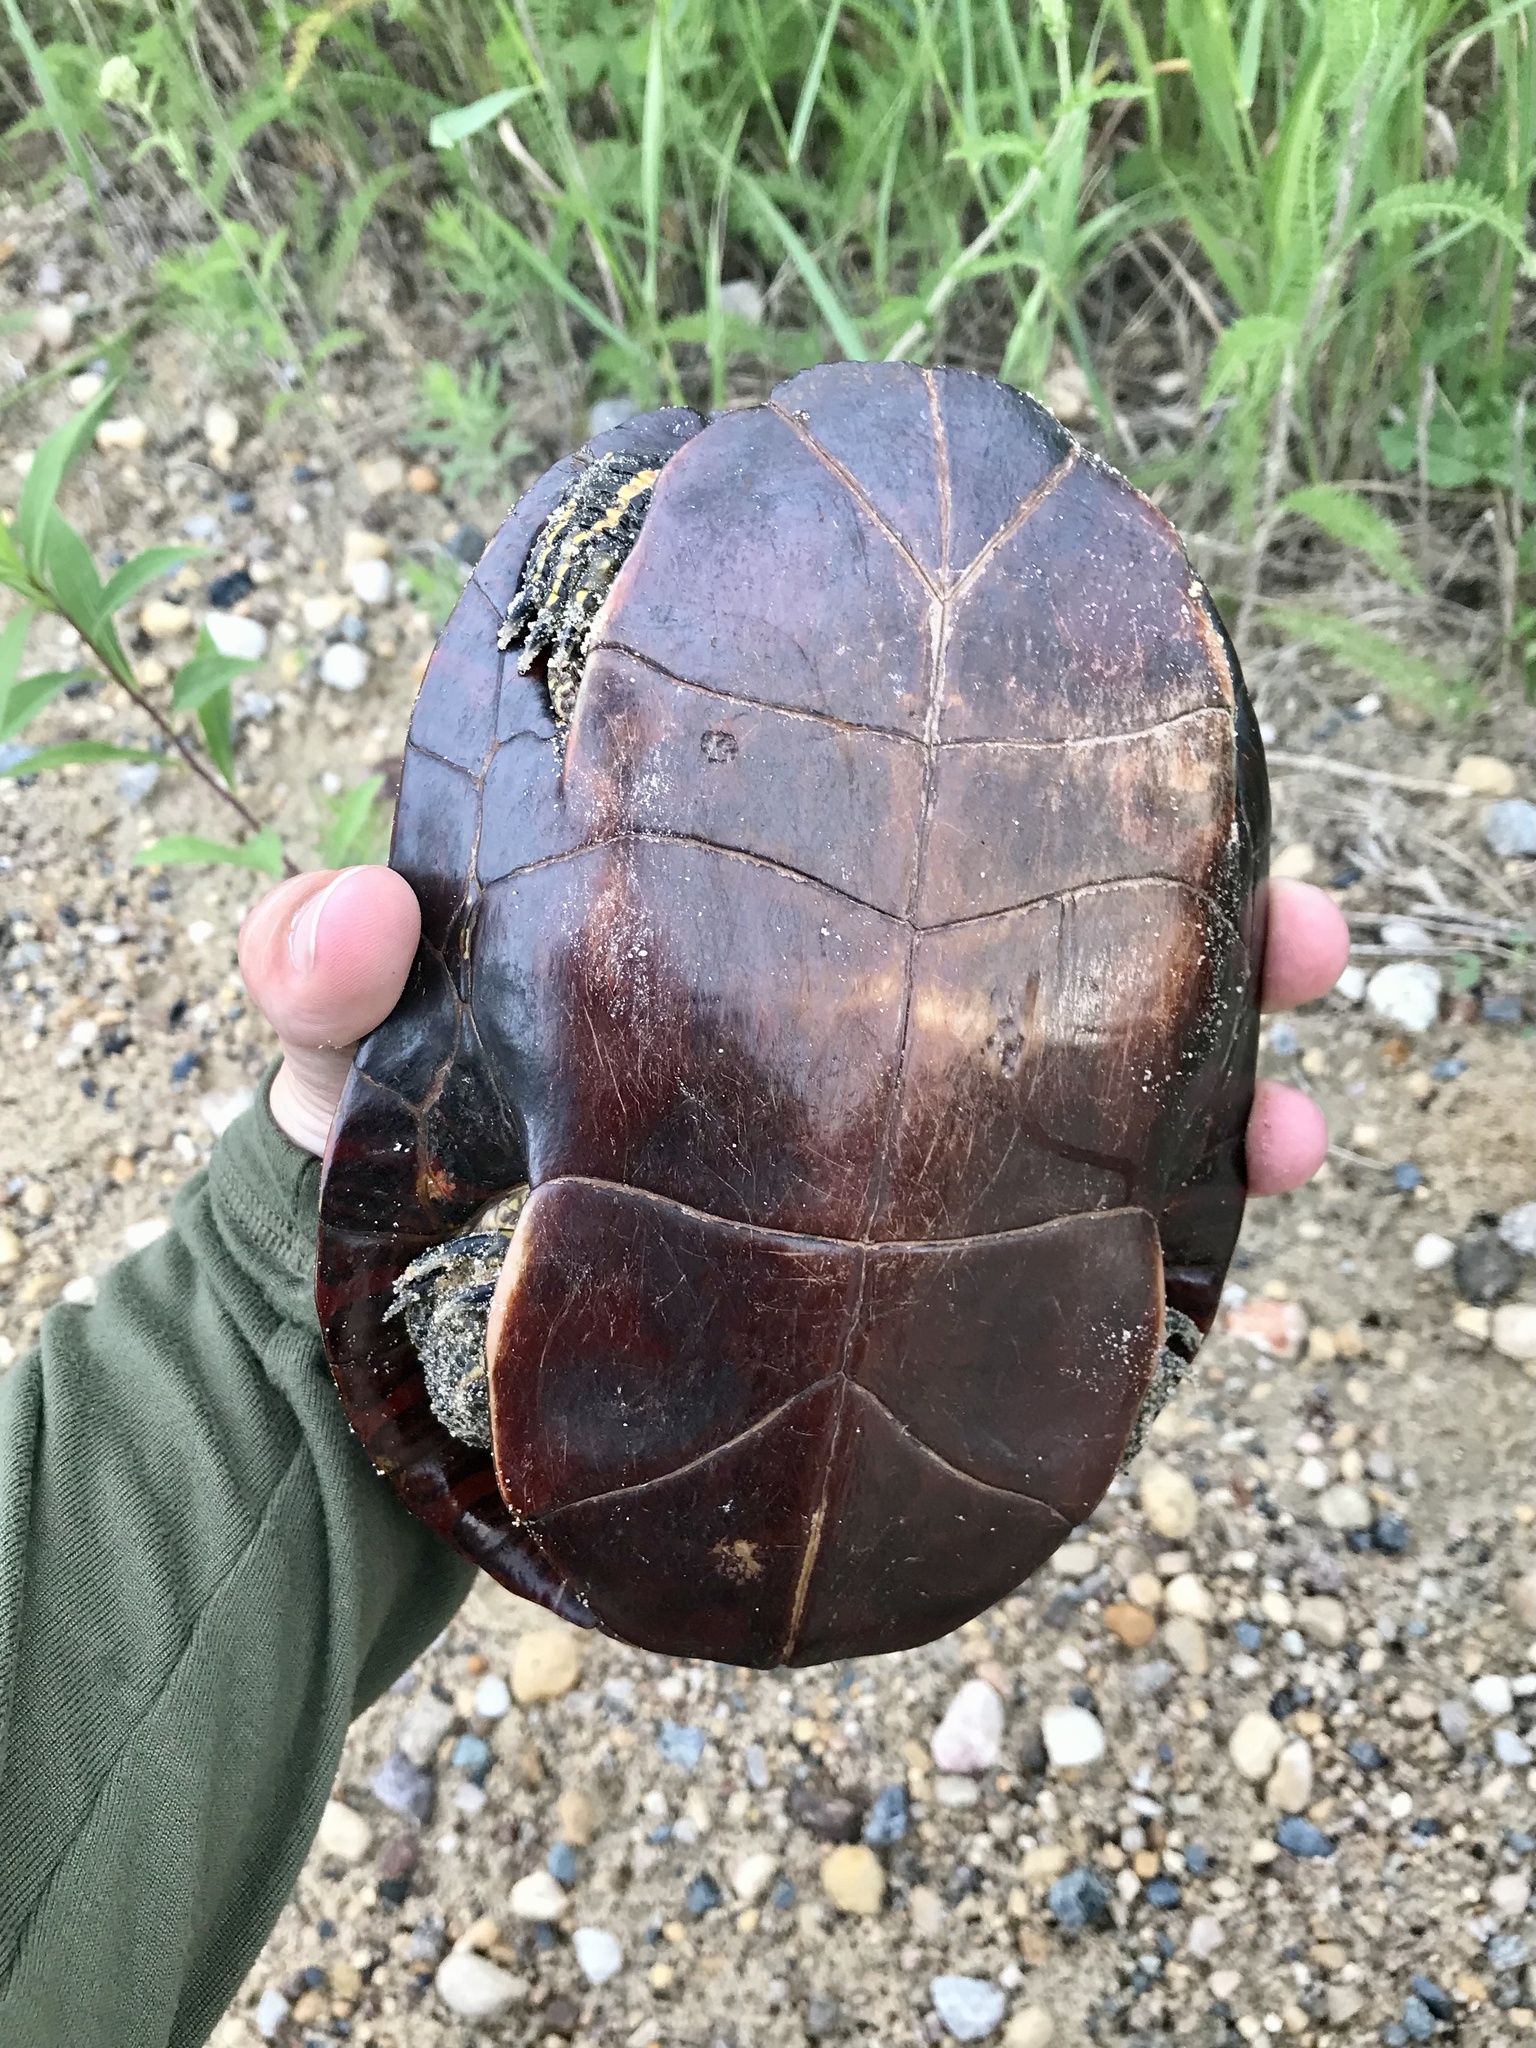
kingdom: Animalia
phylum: Chordata
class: Testudines
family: Emydidae
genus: Chrysemys
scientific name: Chrysemys picta
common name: Painted turtle
